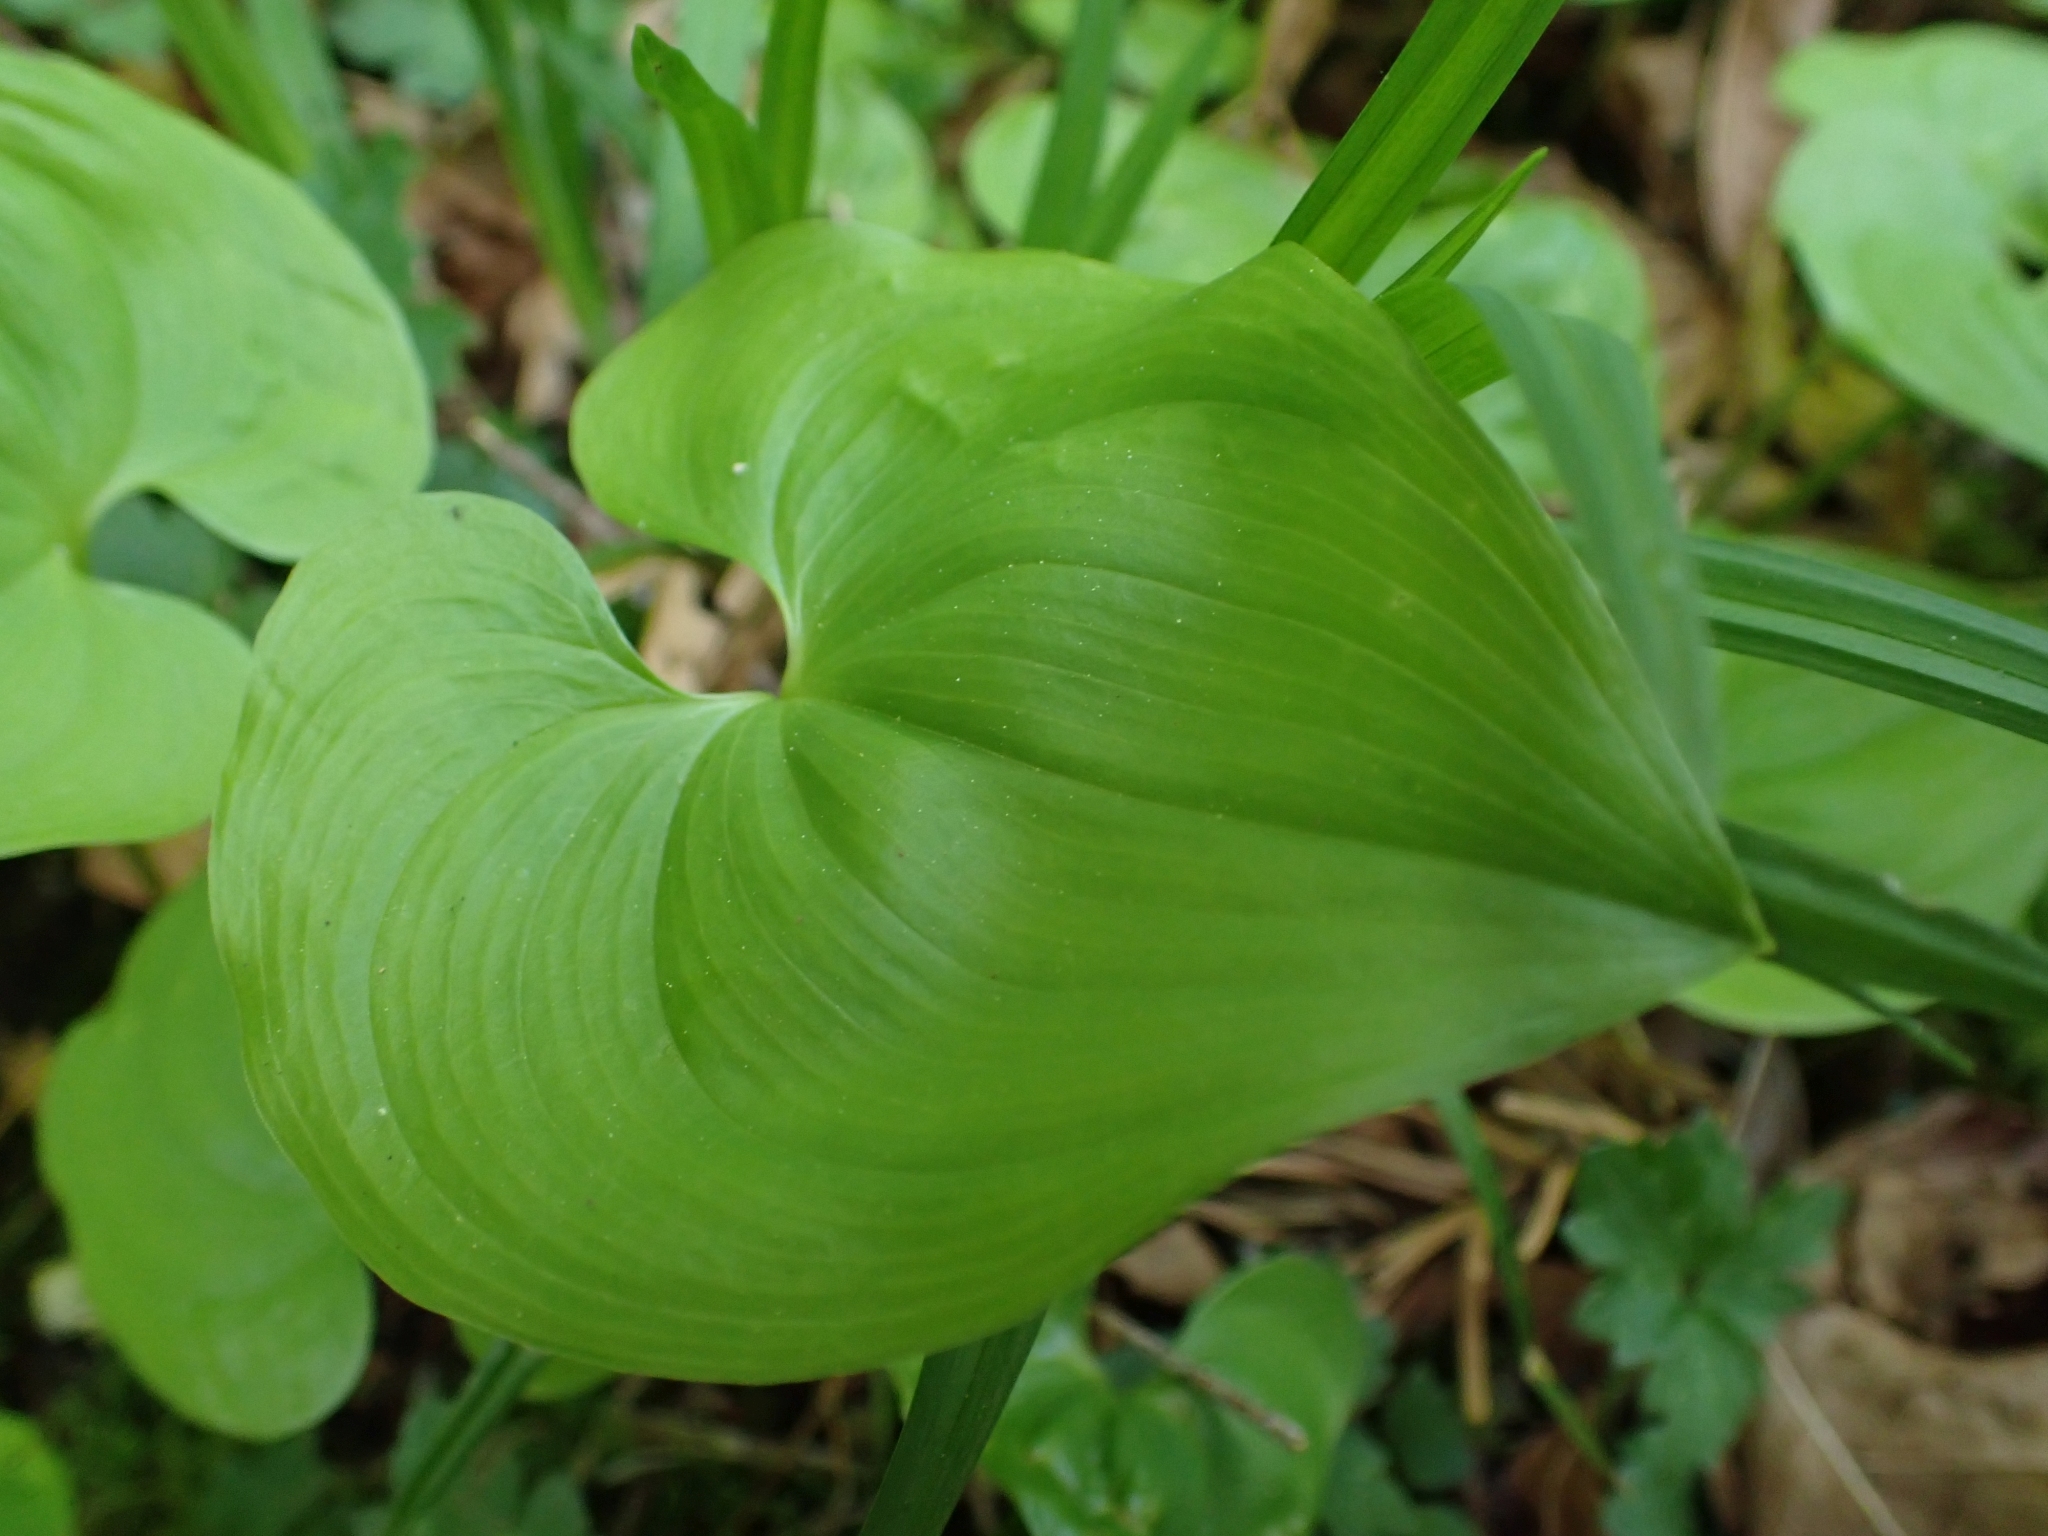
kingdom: Plantae
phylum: Tracheophyta
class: Liliopsida
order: Asparagales
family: Asparagaceae
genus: Maianthemum
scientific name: Maianthemum dilatatum
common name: False lily-of-the-valley
